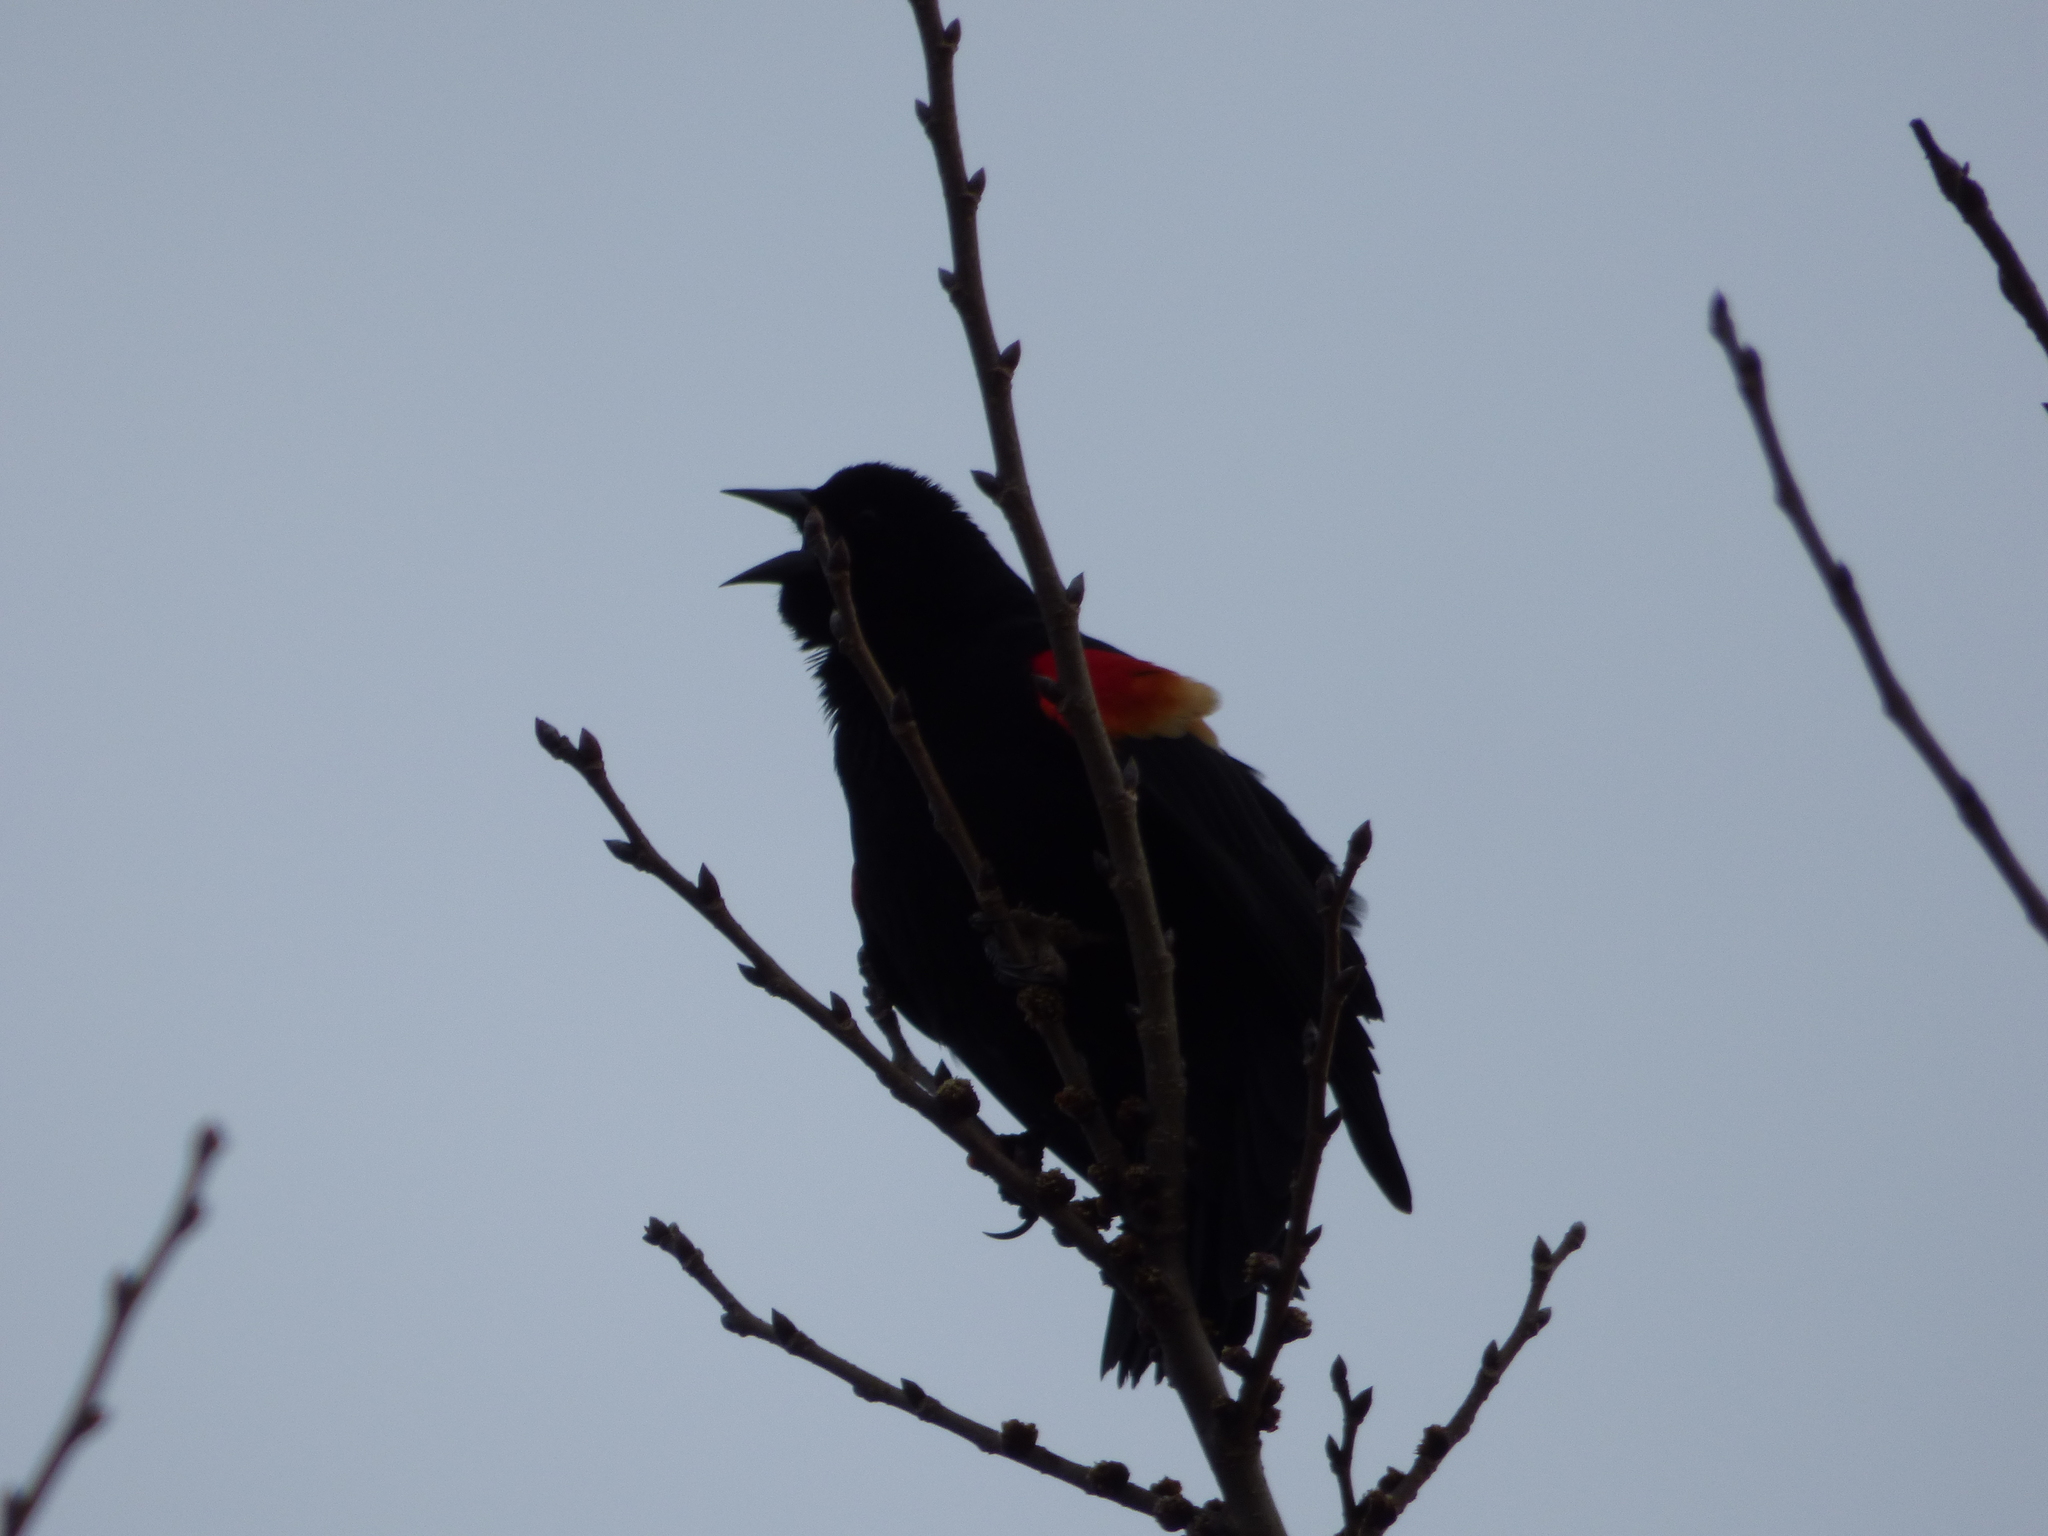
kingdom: Animalia
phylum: Chordata
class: Aves
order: Passeriformes
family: Icteridae
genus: Agelaius
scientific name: Agelaius phoeniceus
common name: Red-winged blackbird
